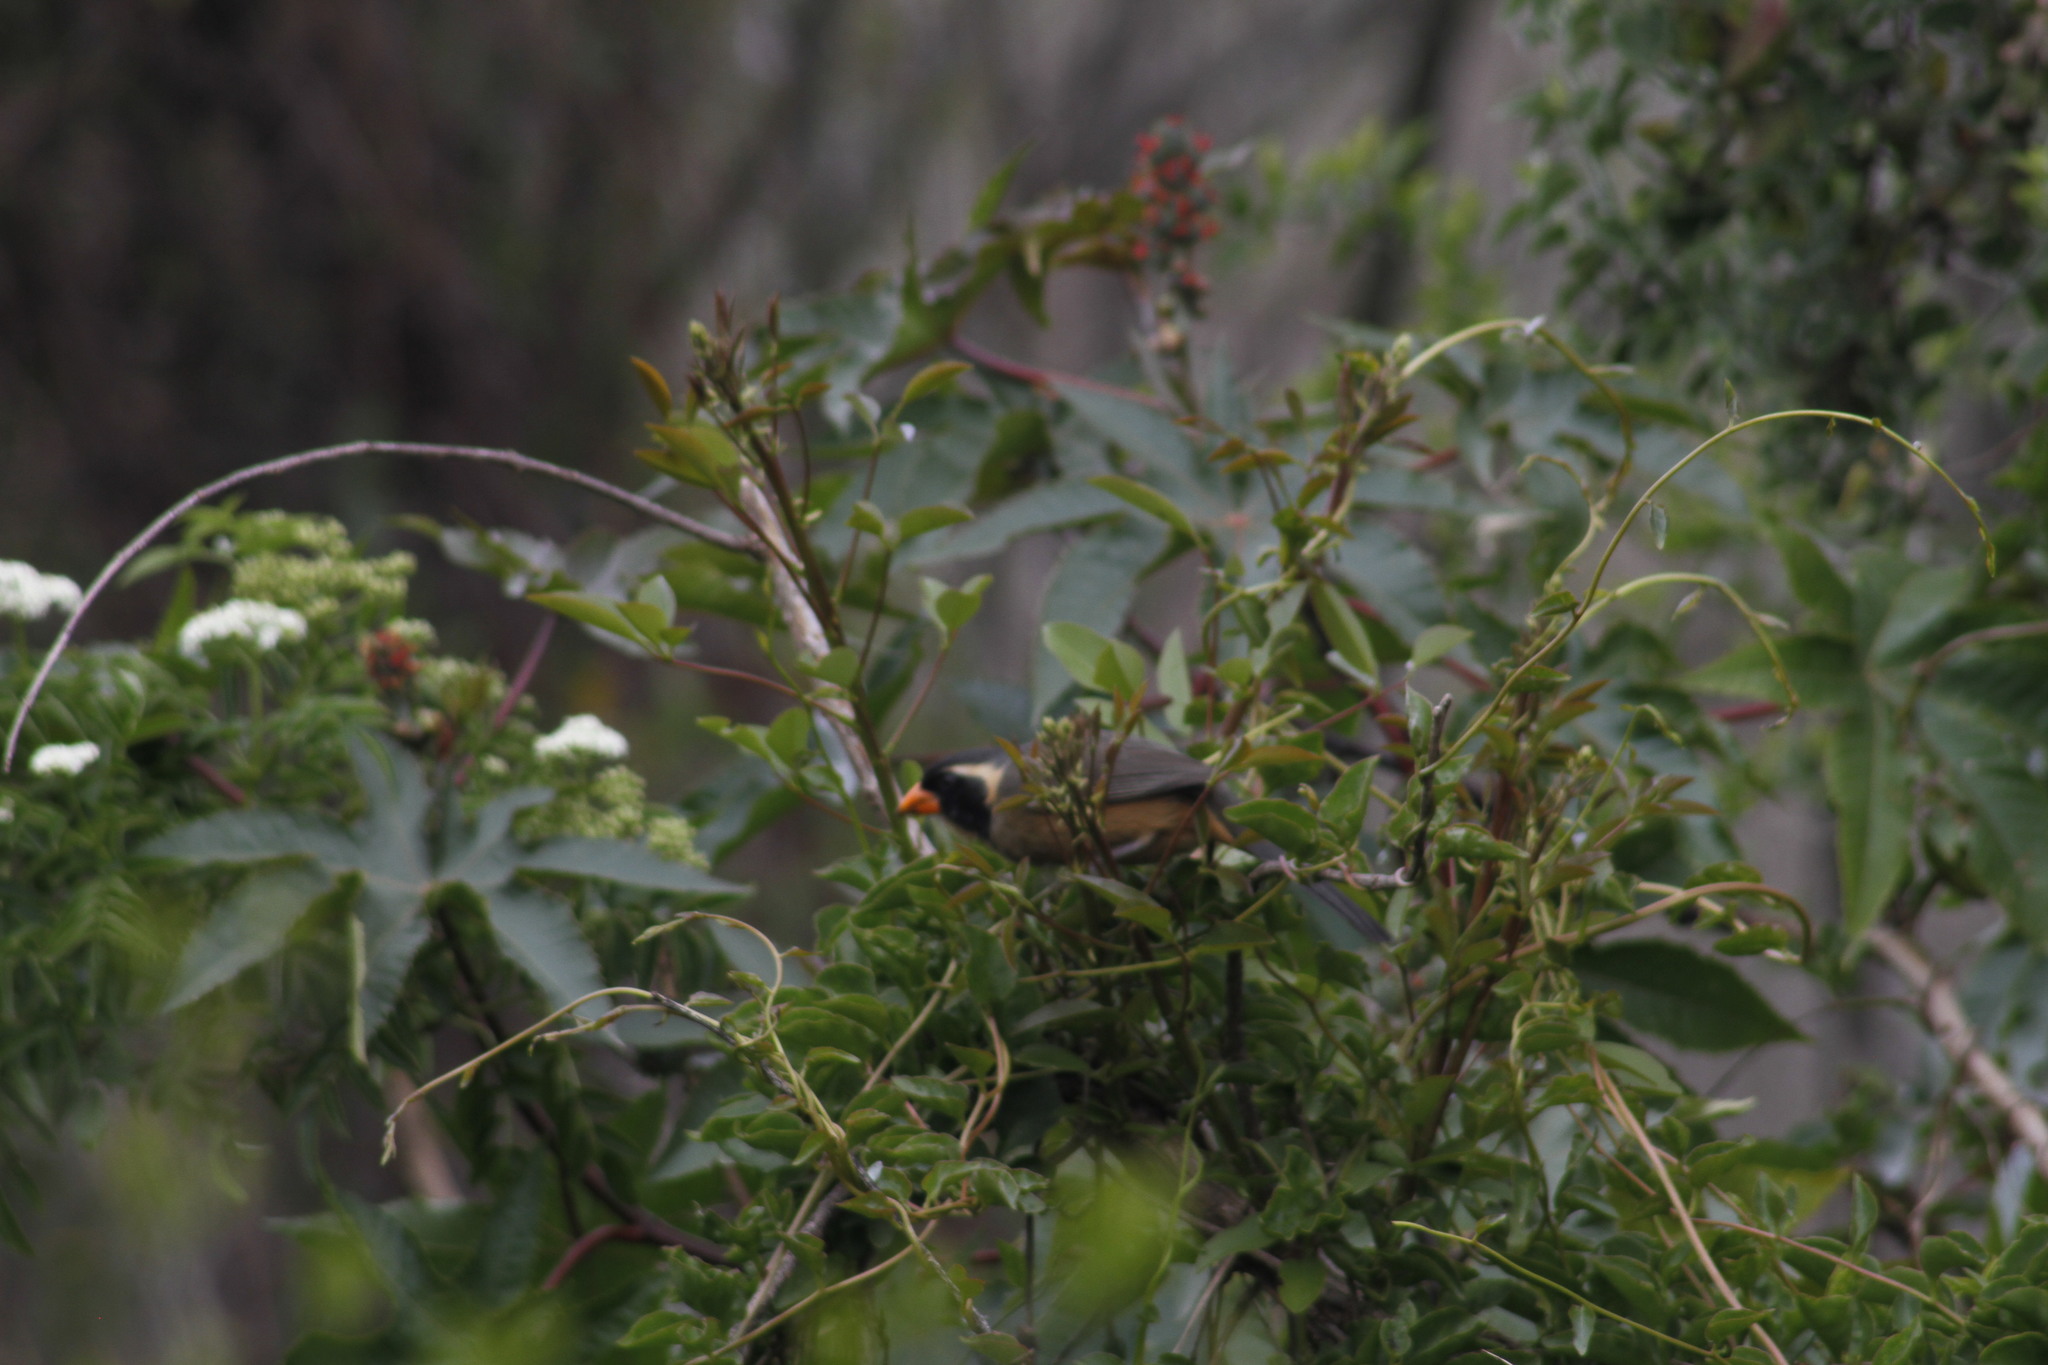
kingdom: Animalia
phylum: Chordata
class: Aves
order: Passeriformes
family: Thraupidae
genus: Saltator
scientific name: Saltator aurantiirostris
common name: Golden-billed saltator
